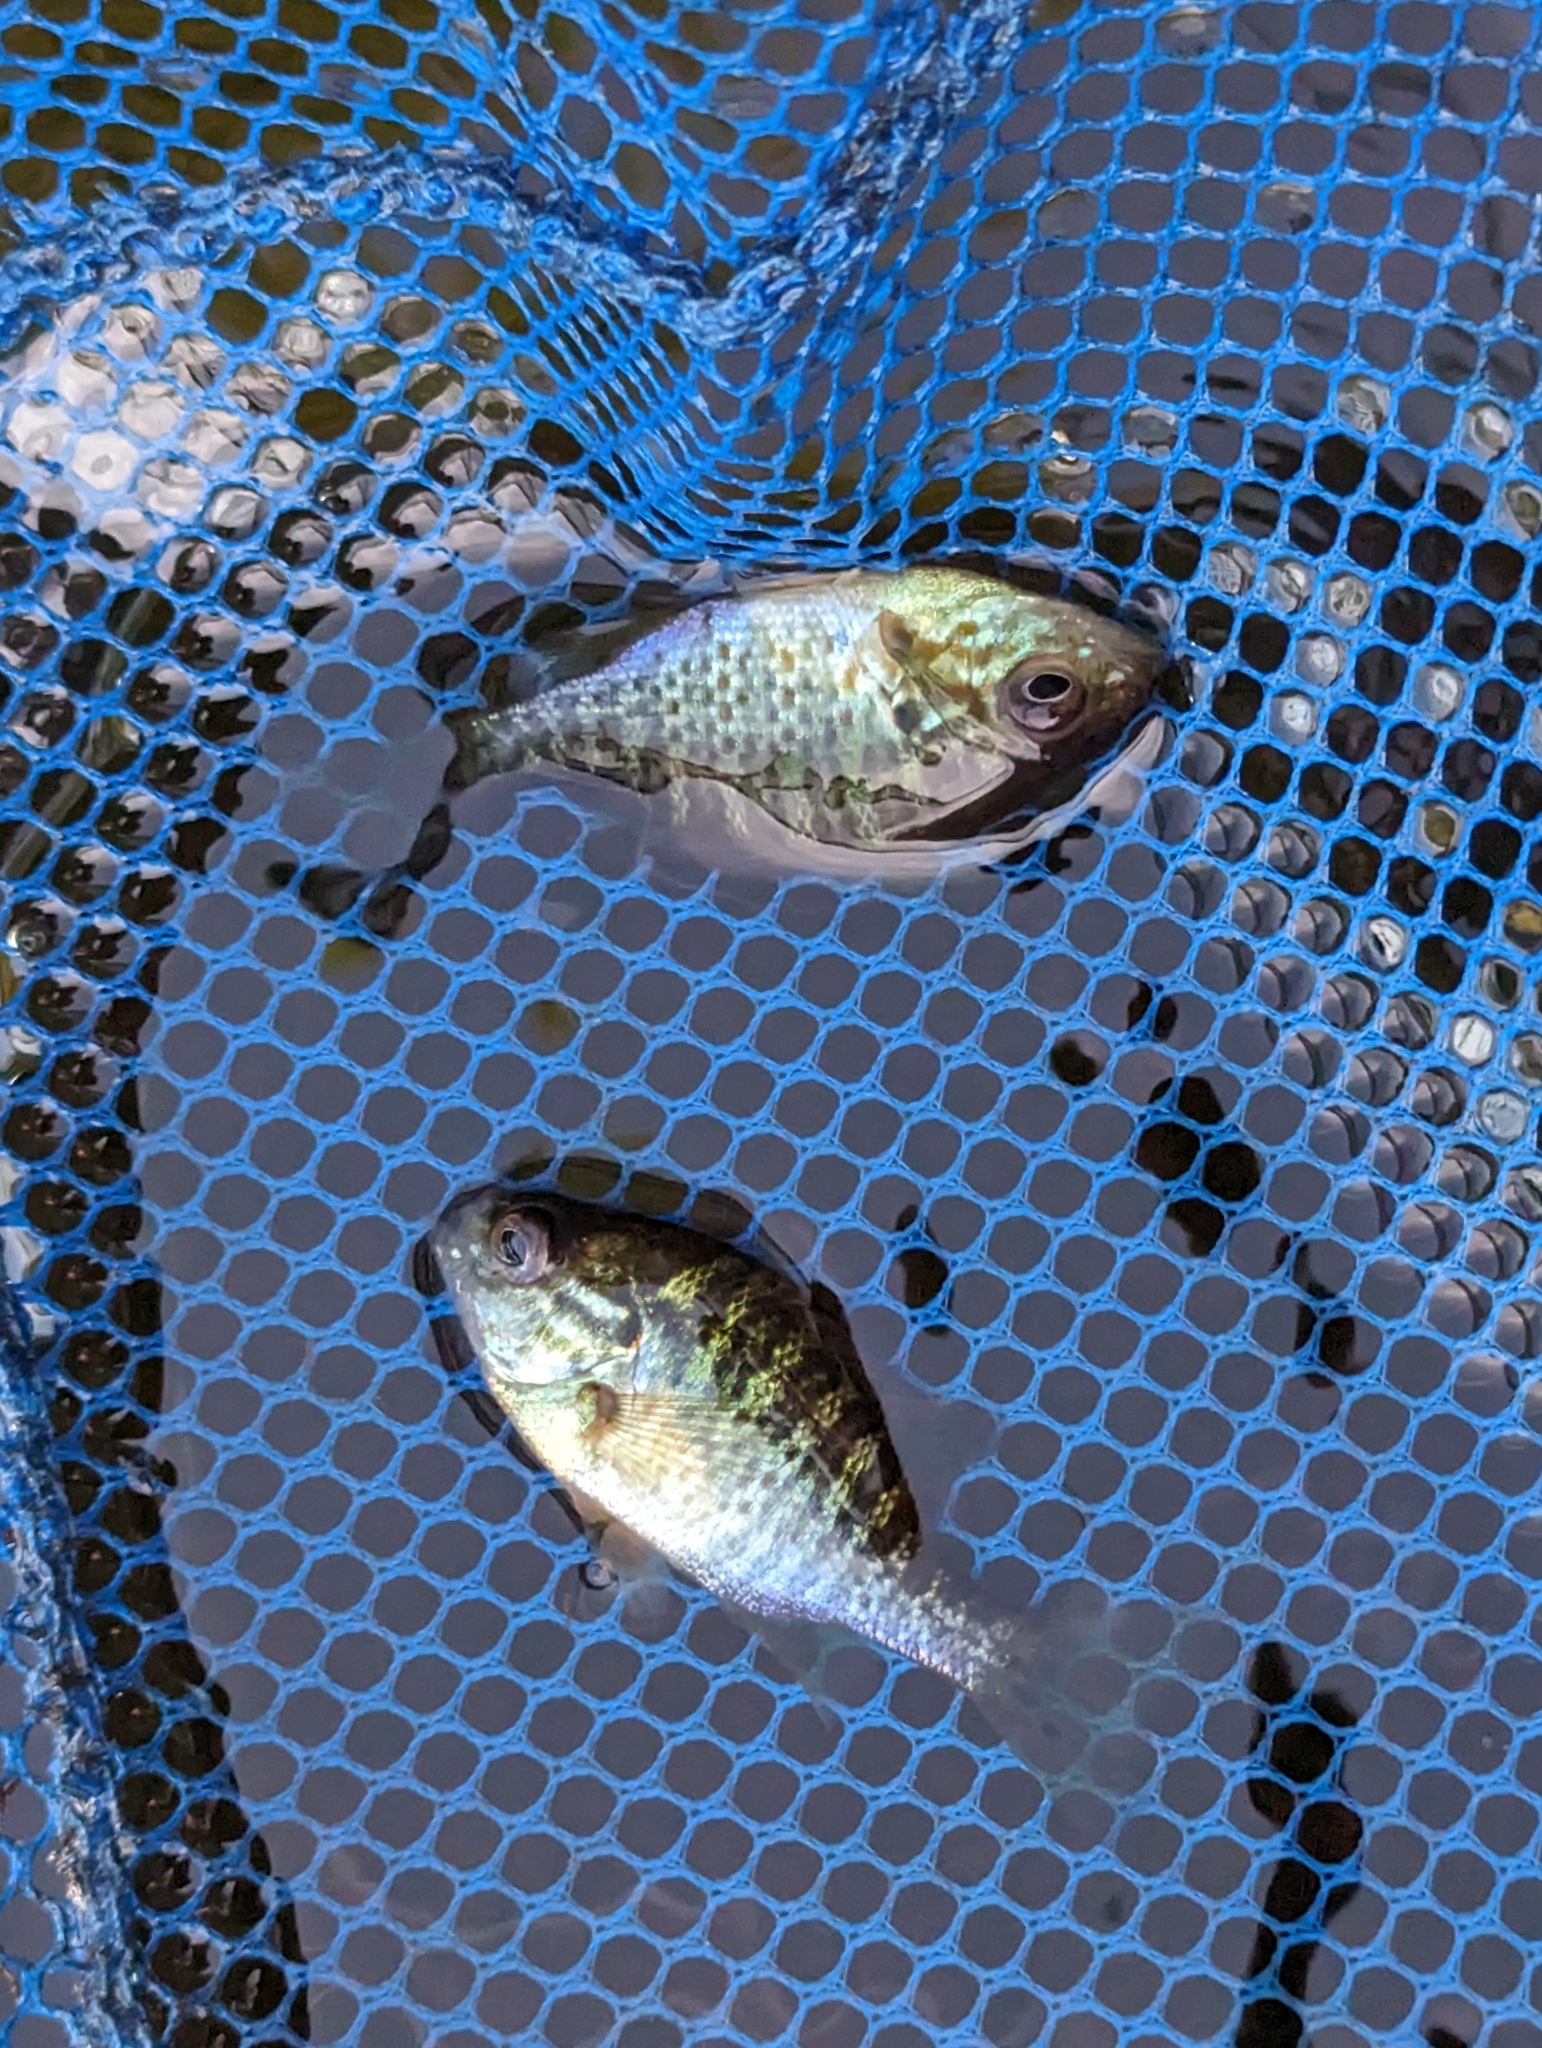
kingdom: Animalia
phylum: Chordata
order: Perciformes
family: Centrarchidae
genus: Lepomis
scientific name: Lepomis gibbosus
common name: Pumpkinseed
